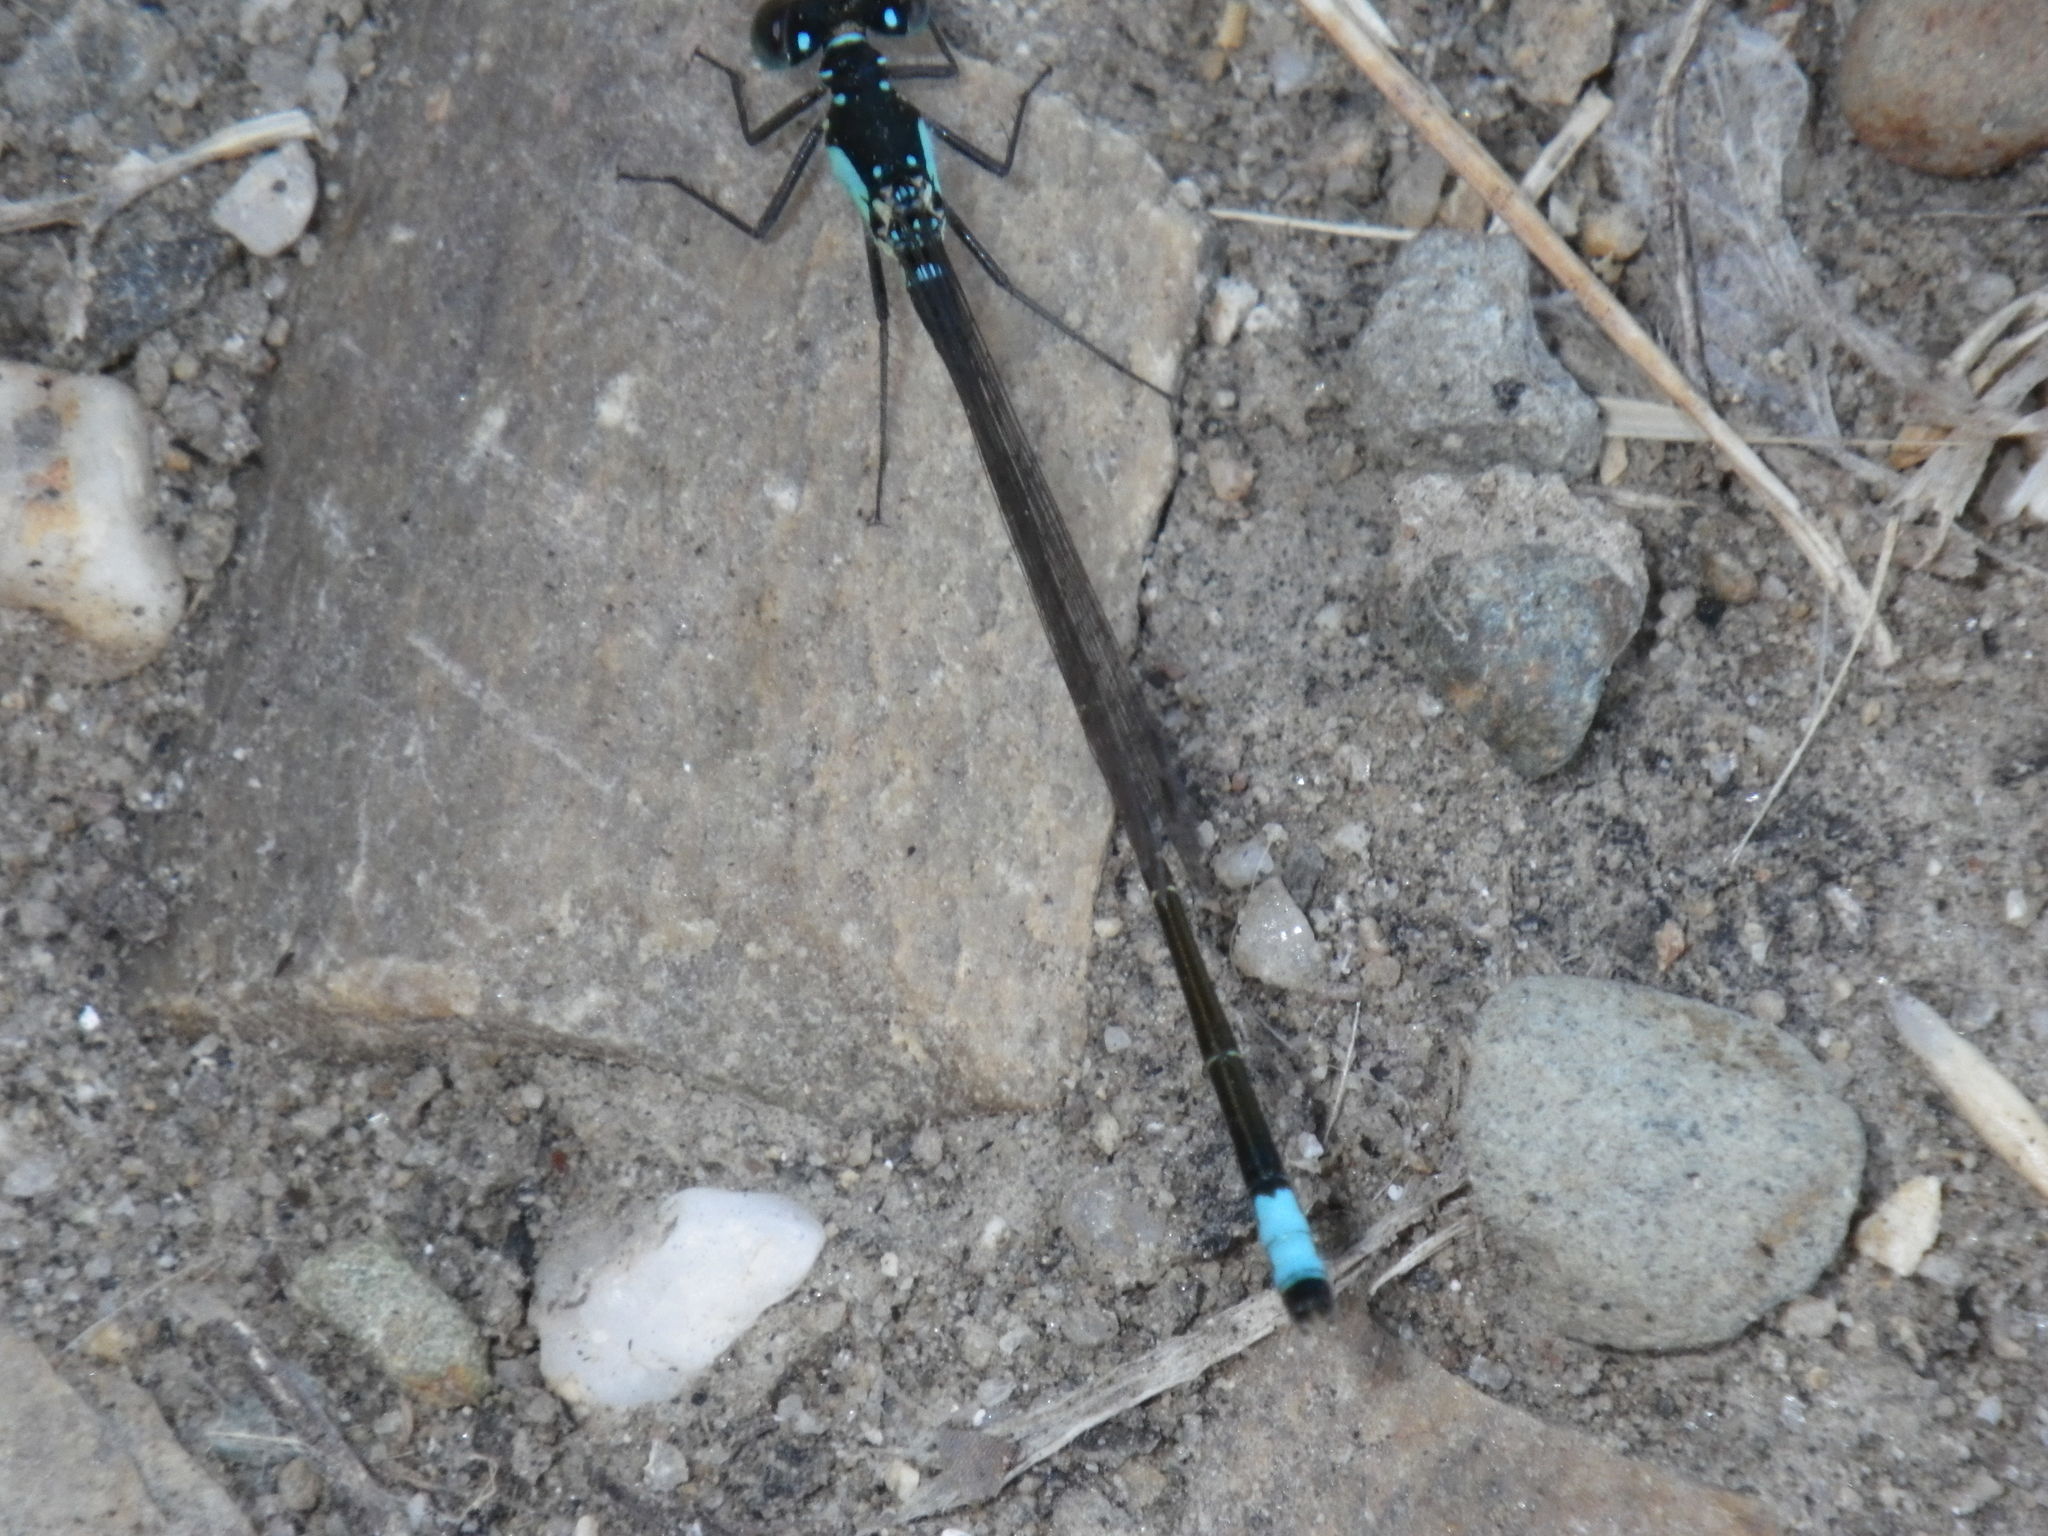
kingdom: Animalia
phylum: Arthropoda
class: Insecta
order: Odonata
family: Coenagrionidae
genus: Ischnura
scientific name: Ischnura cervula
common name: Pacific forktail
